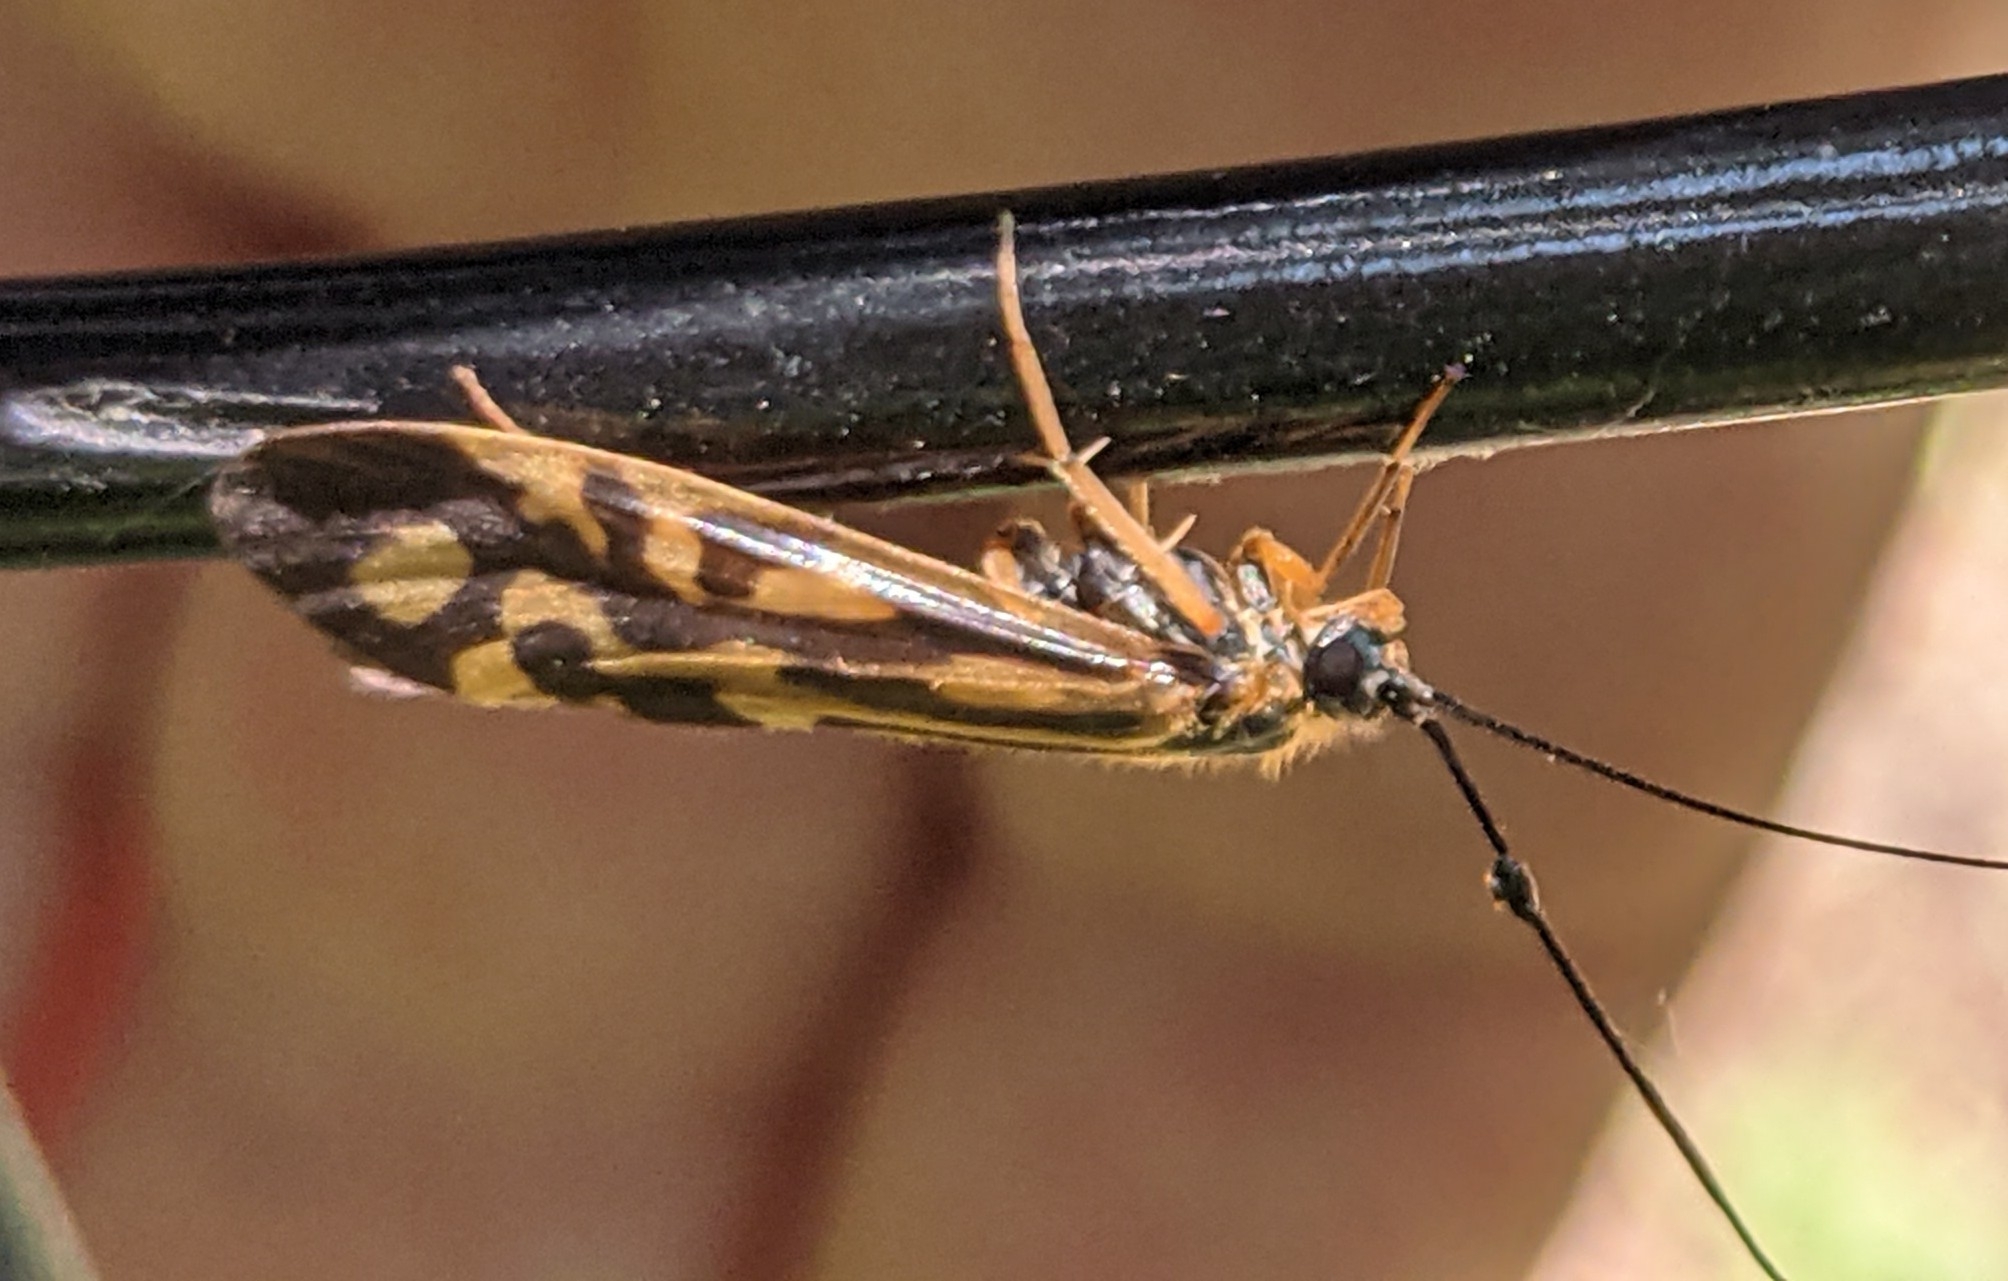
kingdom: Animalia
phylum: Arthropoda
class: Insecta
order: Trichoptera
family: Hydropsychidae
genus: Macrostemum
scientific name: Macrostemum zebratum
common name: Zebra caddisfly
